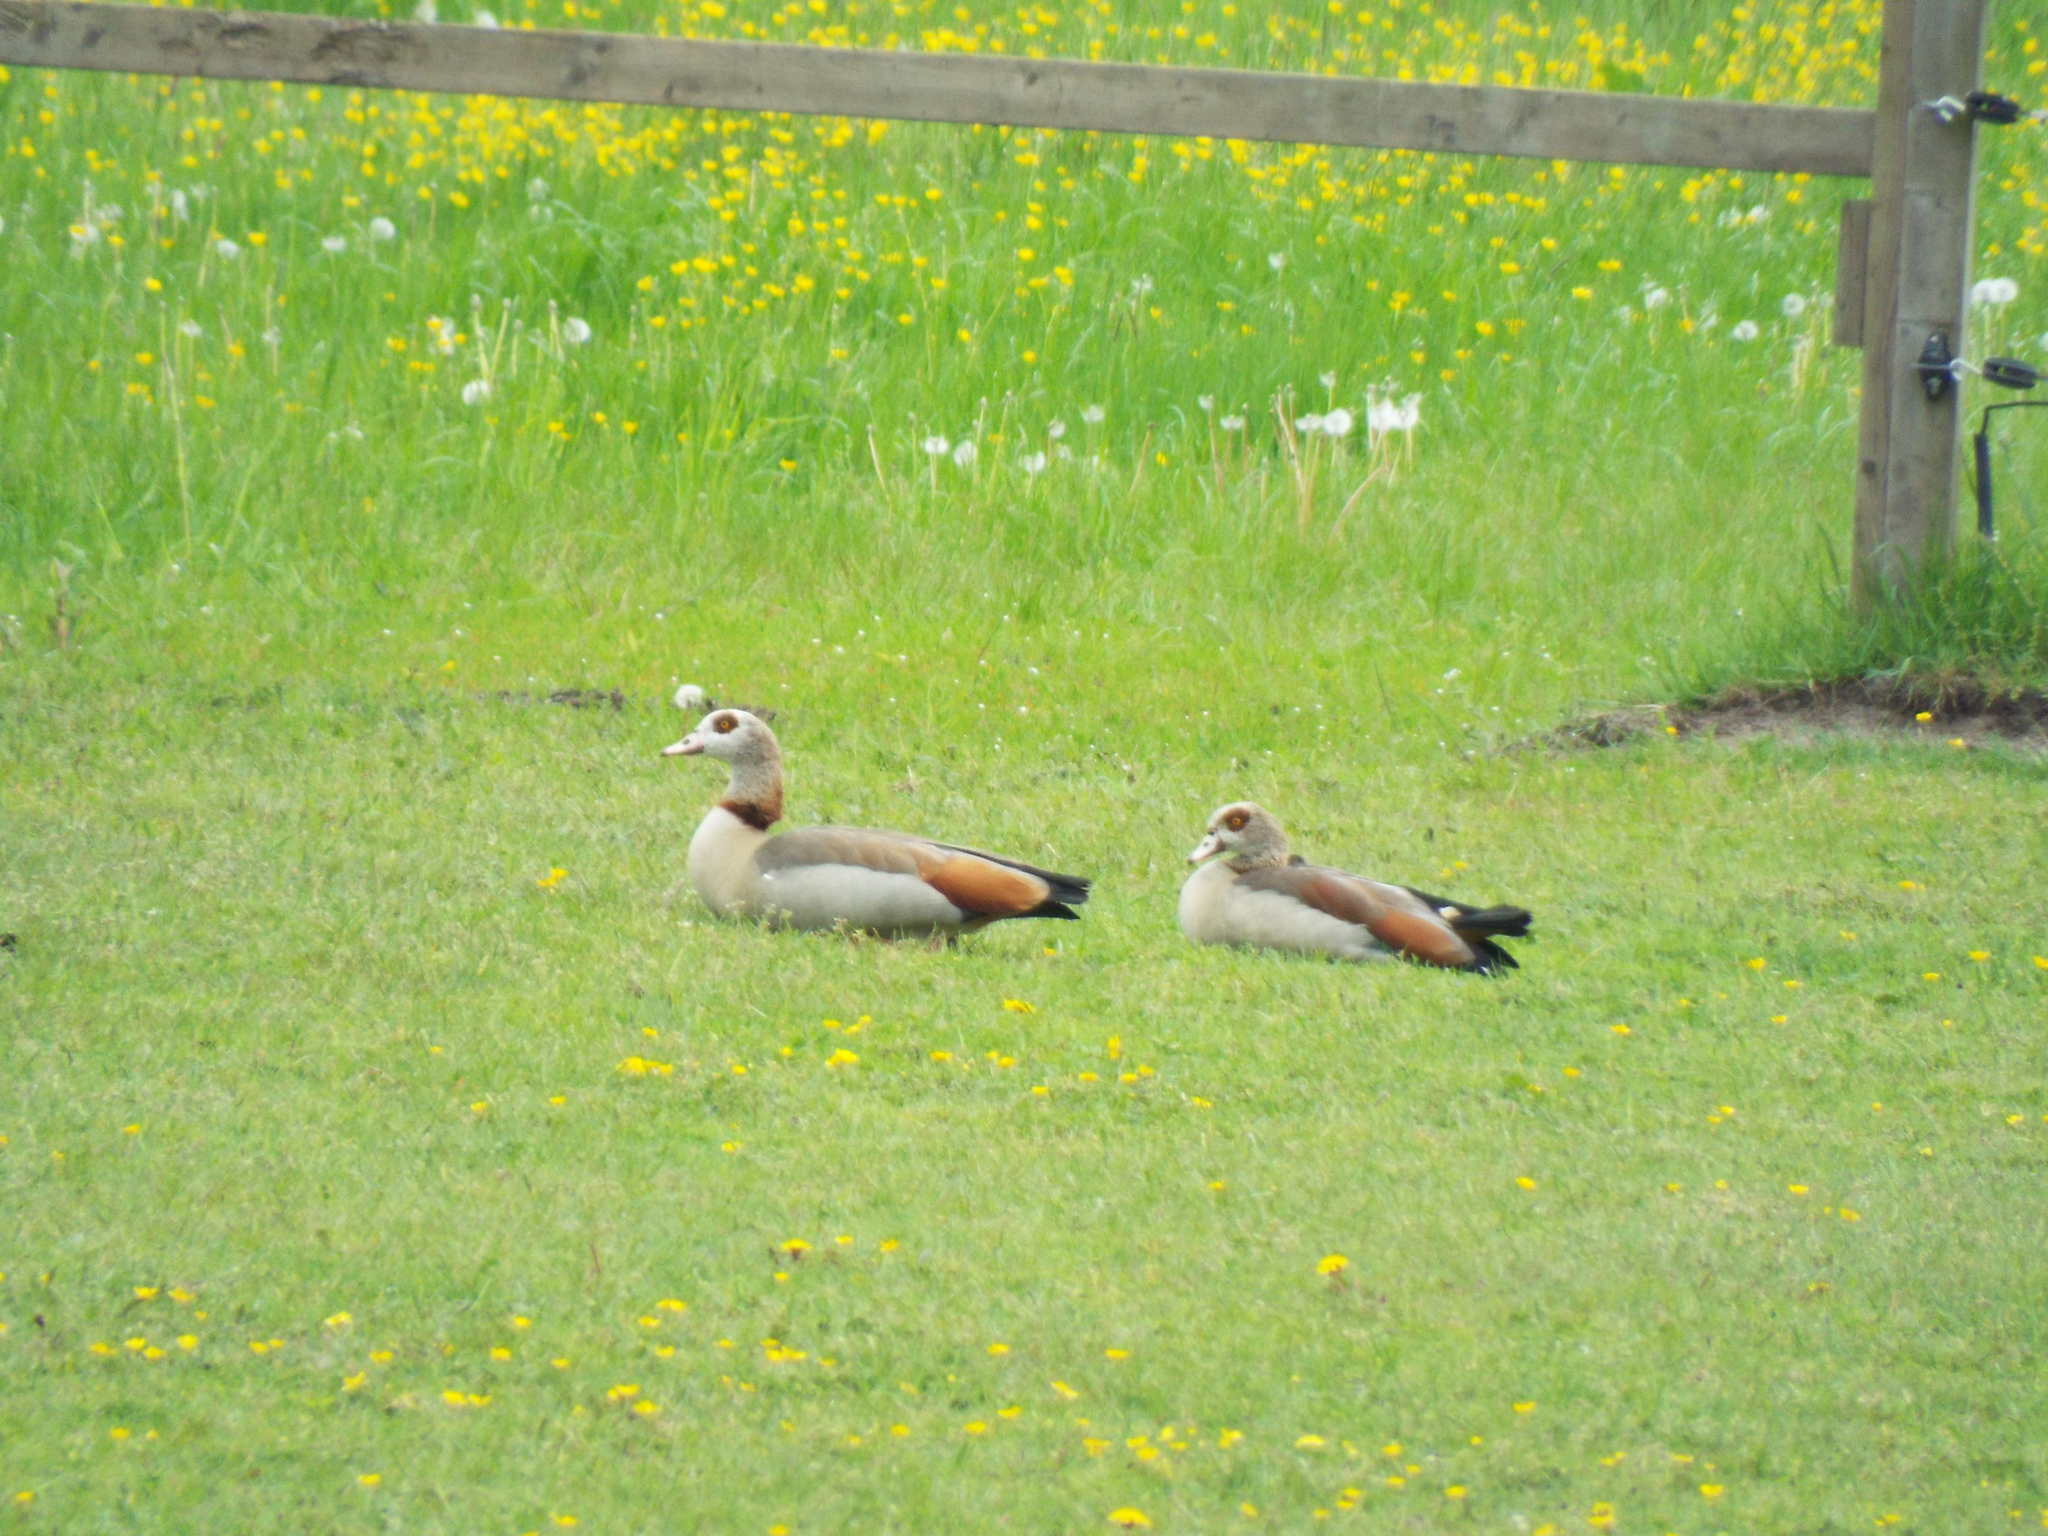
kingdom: Animalia
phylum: Chordata
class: Aves
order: Anseriformes
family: Anatidae
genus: Alopochen
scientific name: Alopochen aegyptiaca
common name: Egyptian goose
